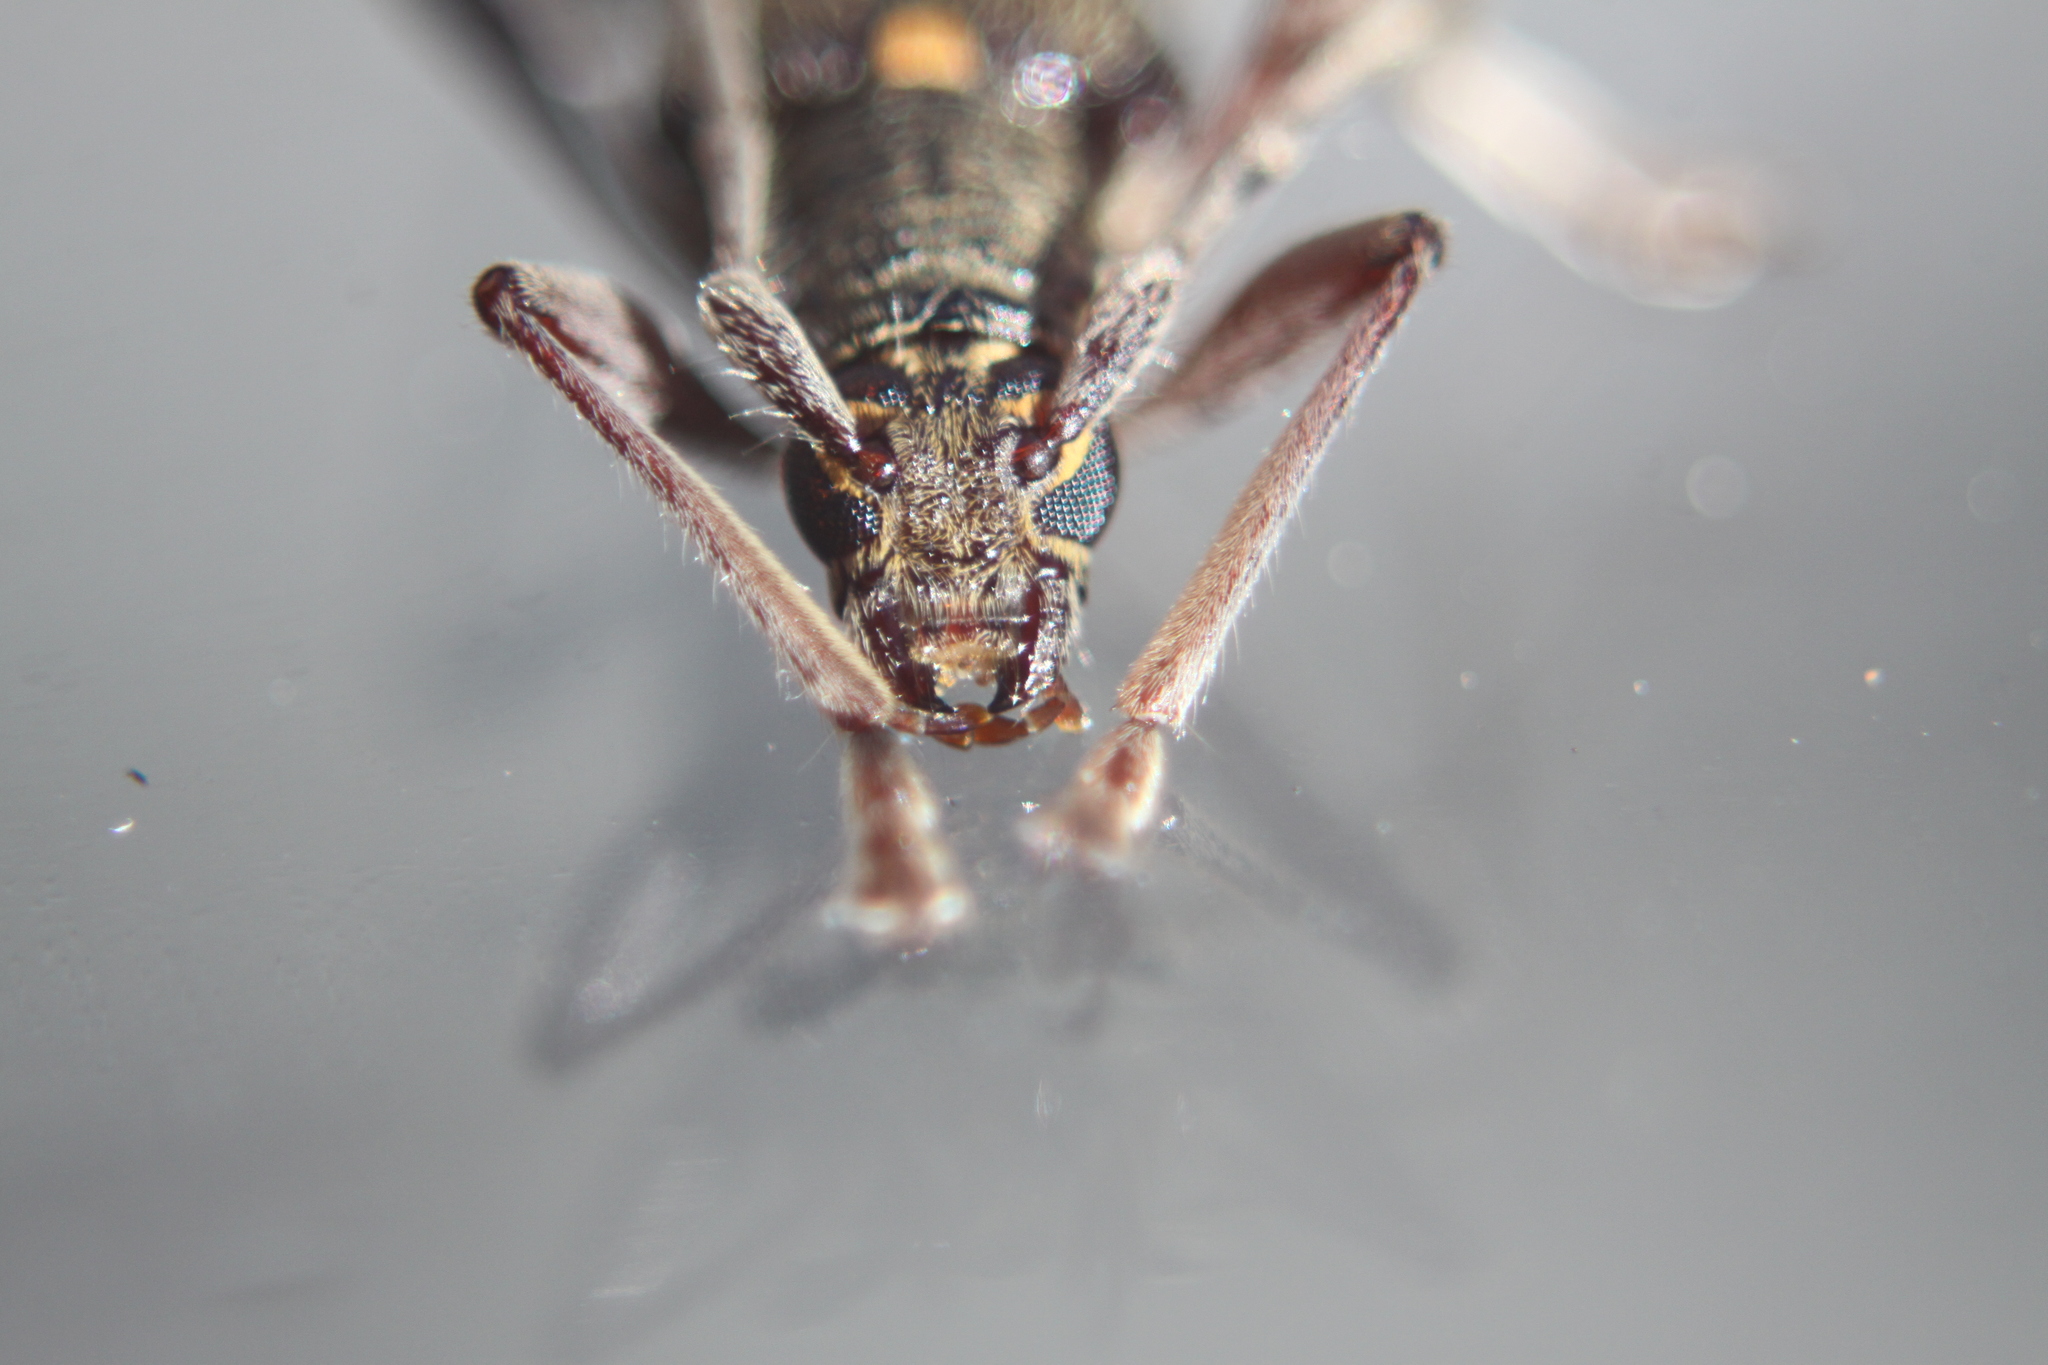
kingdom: Animalia
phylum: Arthropoda
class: Insecta
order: Coleoptera
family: Cerambycidae
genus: Oemona
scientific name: Oemona hirta
